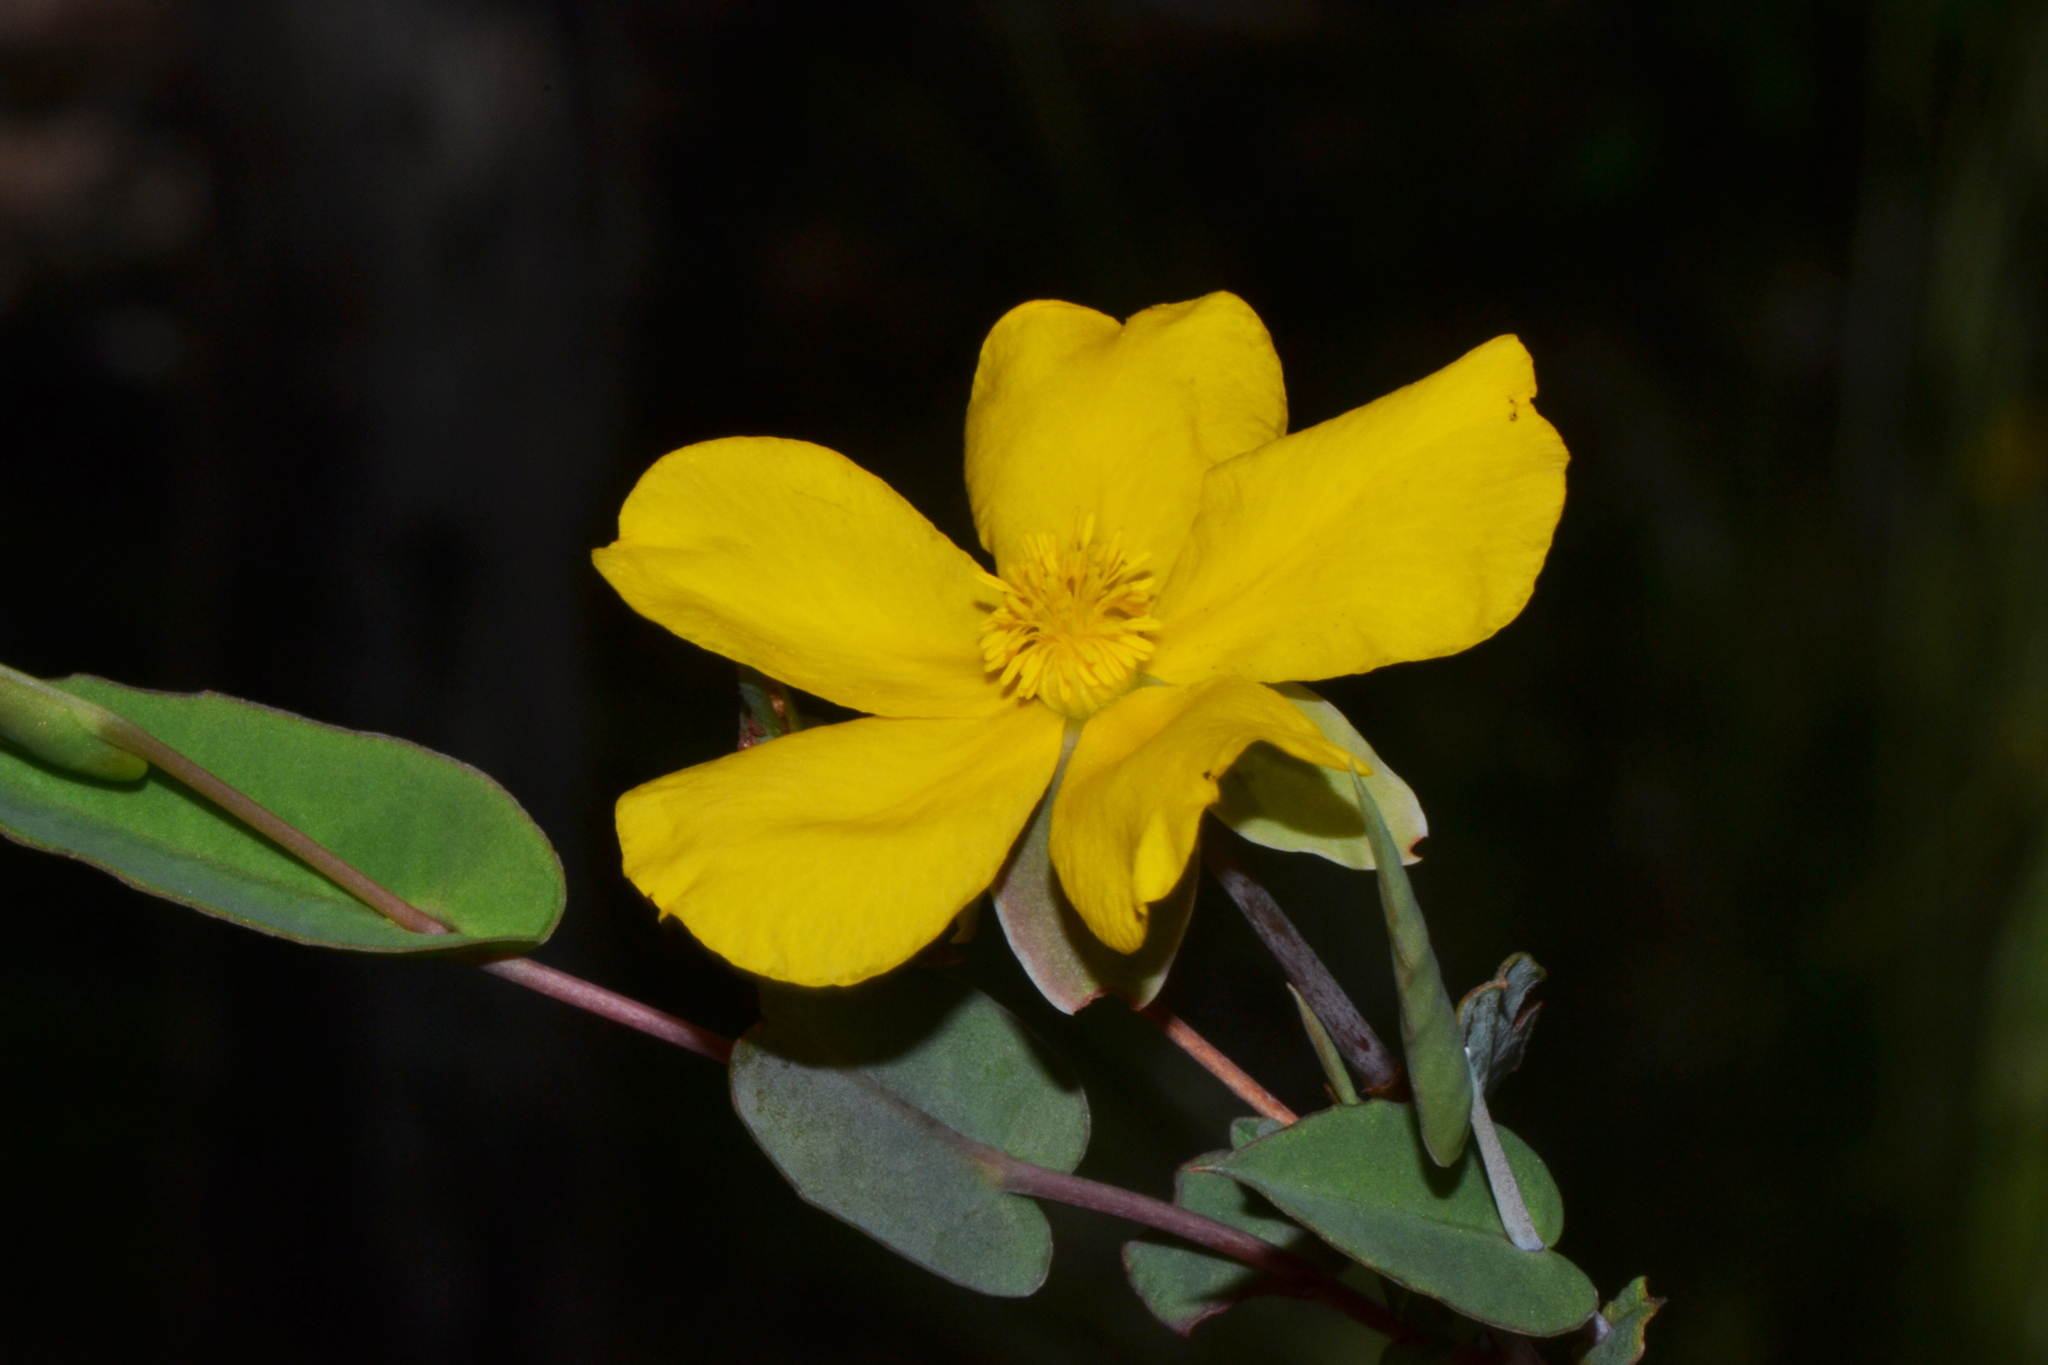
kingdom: Plantae
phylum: Tracheophyta
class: Magnoliopsida
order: Dilleniales
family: Dilleniaceae
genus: Hibbertia
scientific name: Hibbertia amplexicaulis
